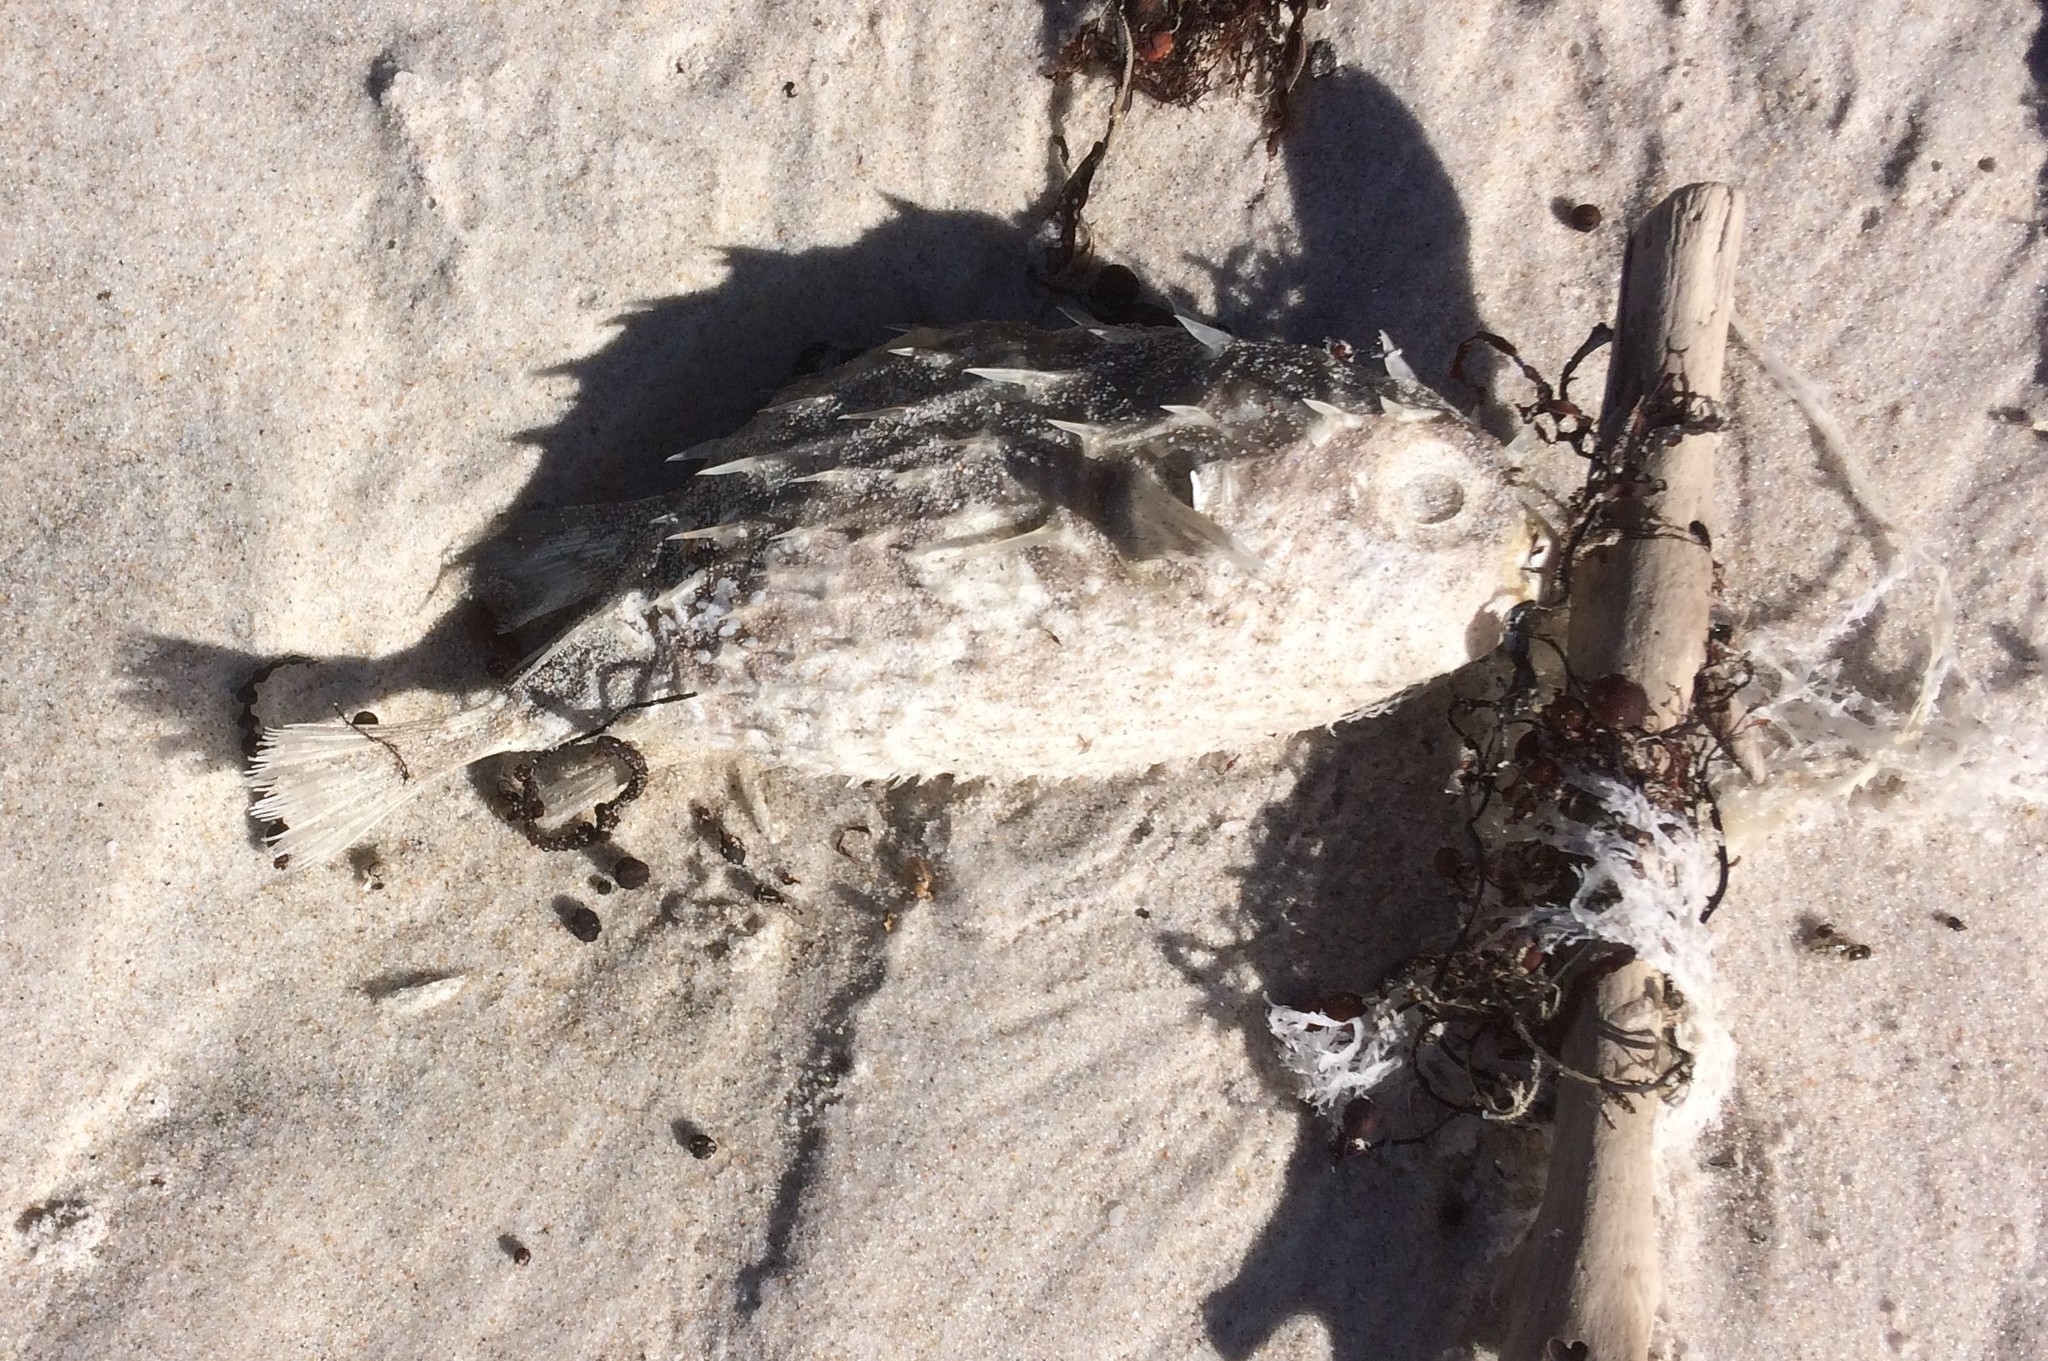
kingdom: Animalia
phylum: Chordata
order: Tetraodontiformes
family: Diodontidae
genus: Allomycterus
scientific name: Allomycterus pilatus
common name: No common name
